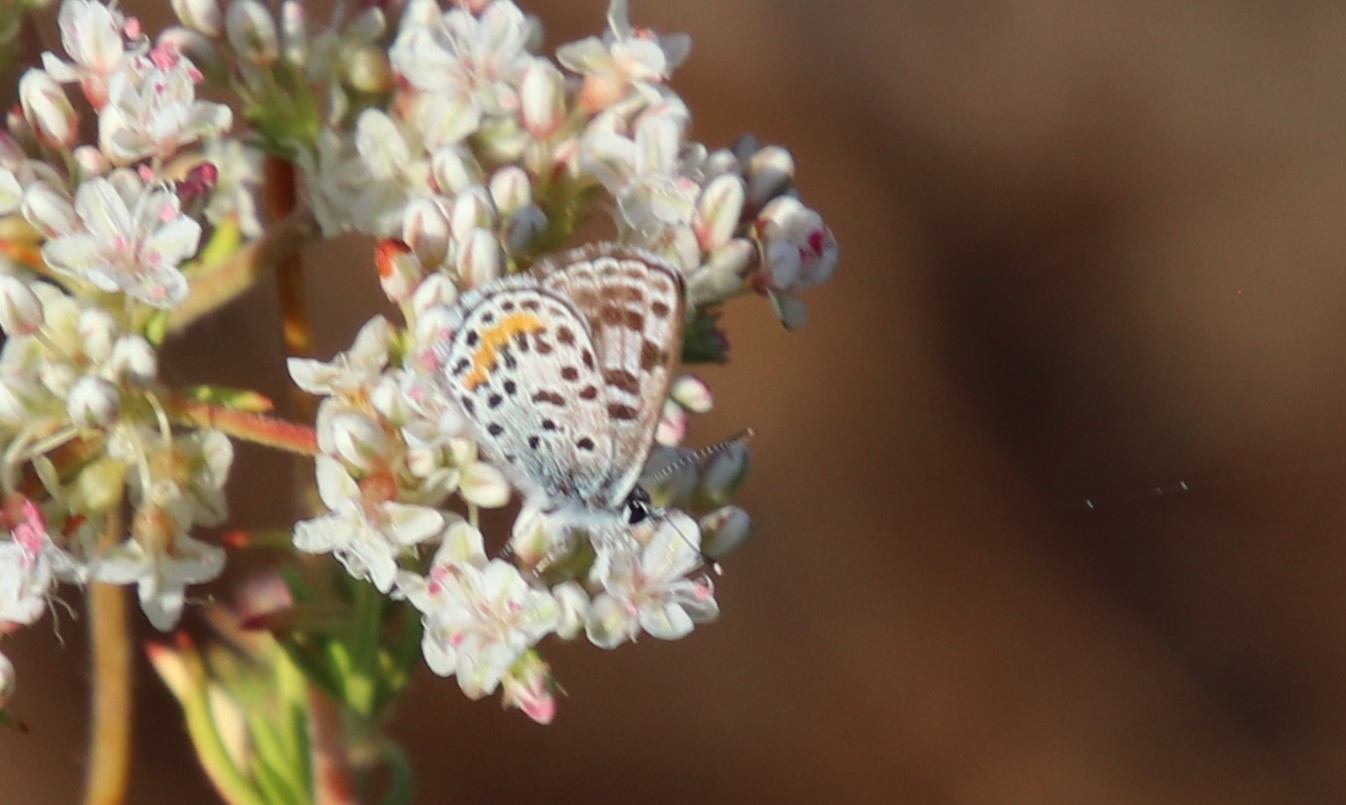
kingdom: Animalia
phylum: Arthropoda
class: Insecta
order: Lepidoptera
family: Lycaenidae
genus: Philotes
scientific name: Philotes bernardino
